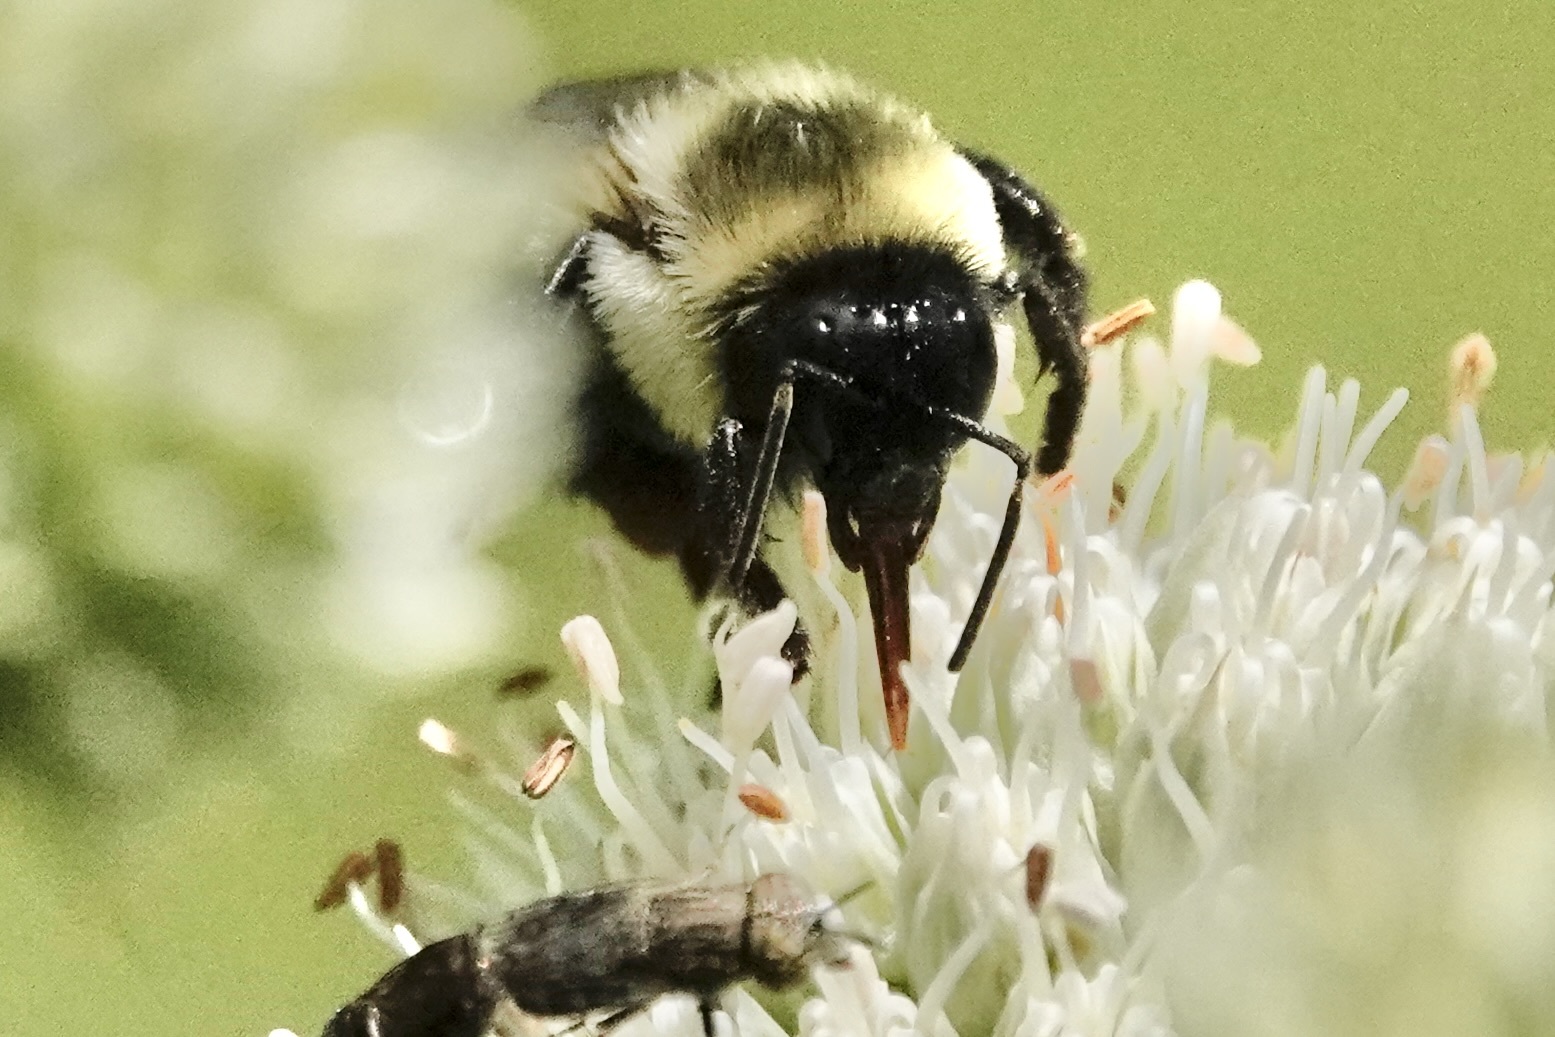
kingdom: Animalia
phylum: Arthropoda
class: Insecta
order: Hymenoptera
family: Apidae
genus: Bombus
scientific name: Bombus bimaculatus
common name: Two-spotted bumble bee
